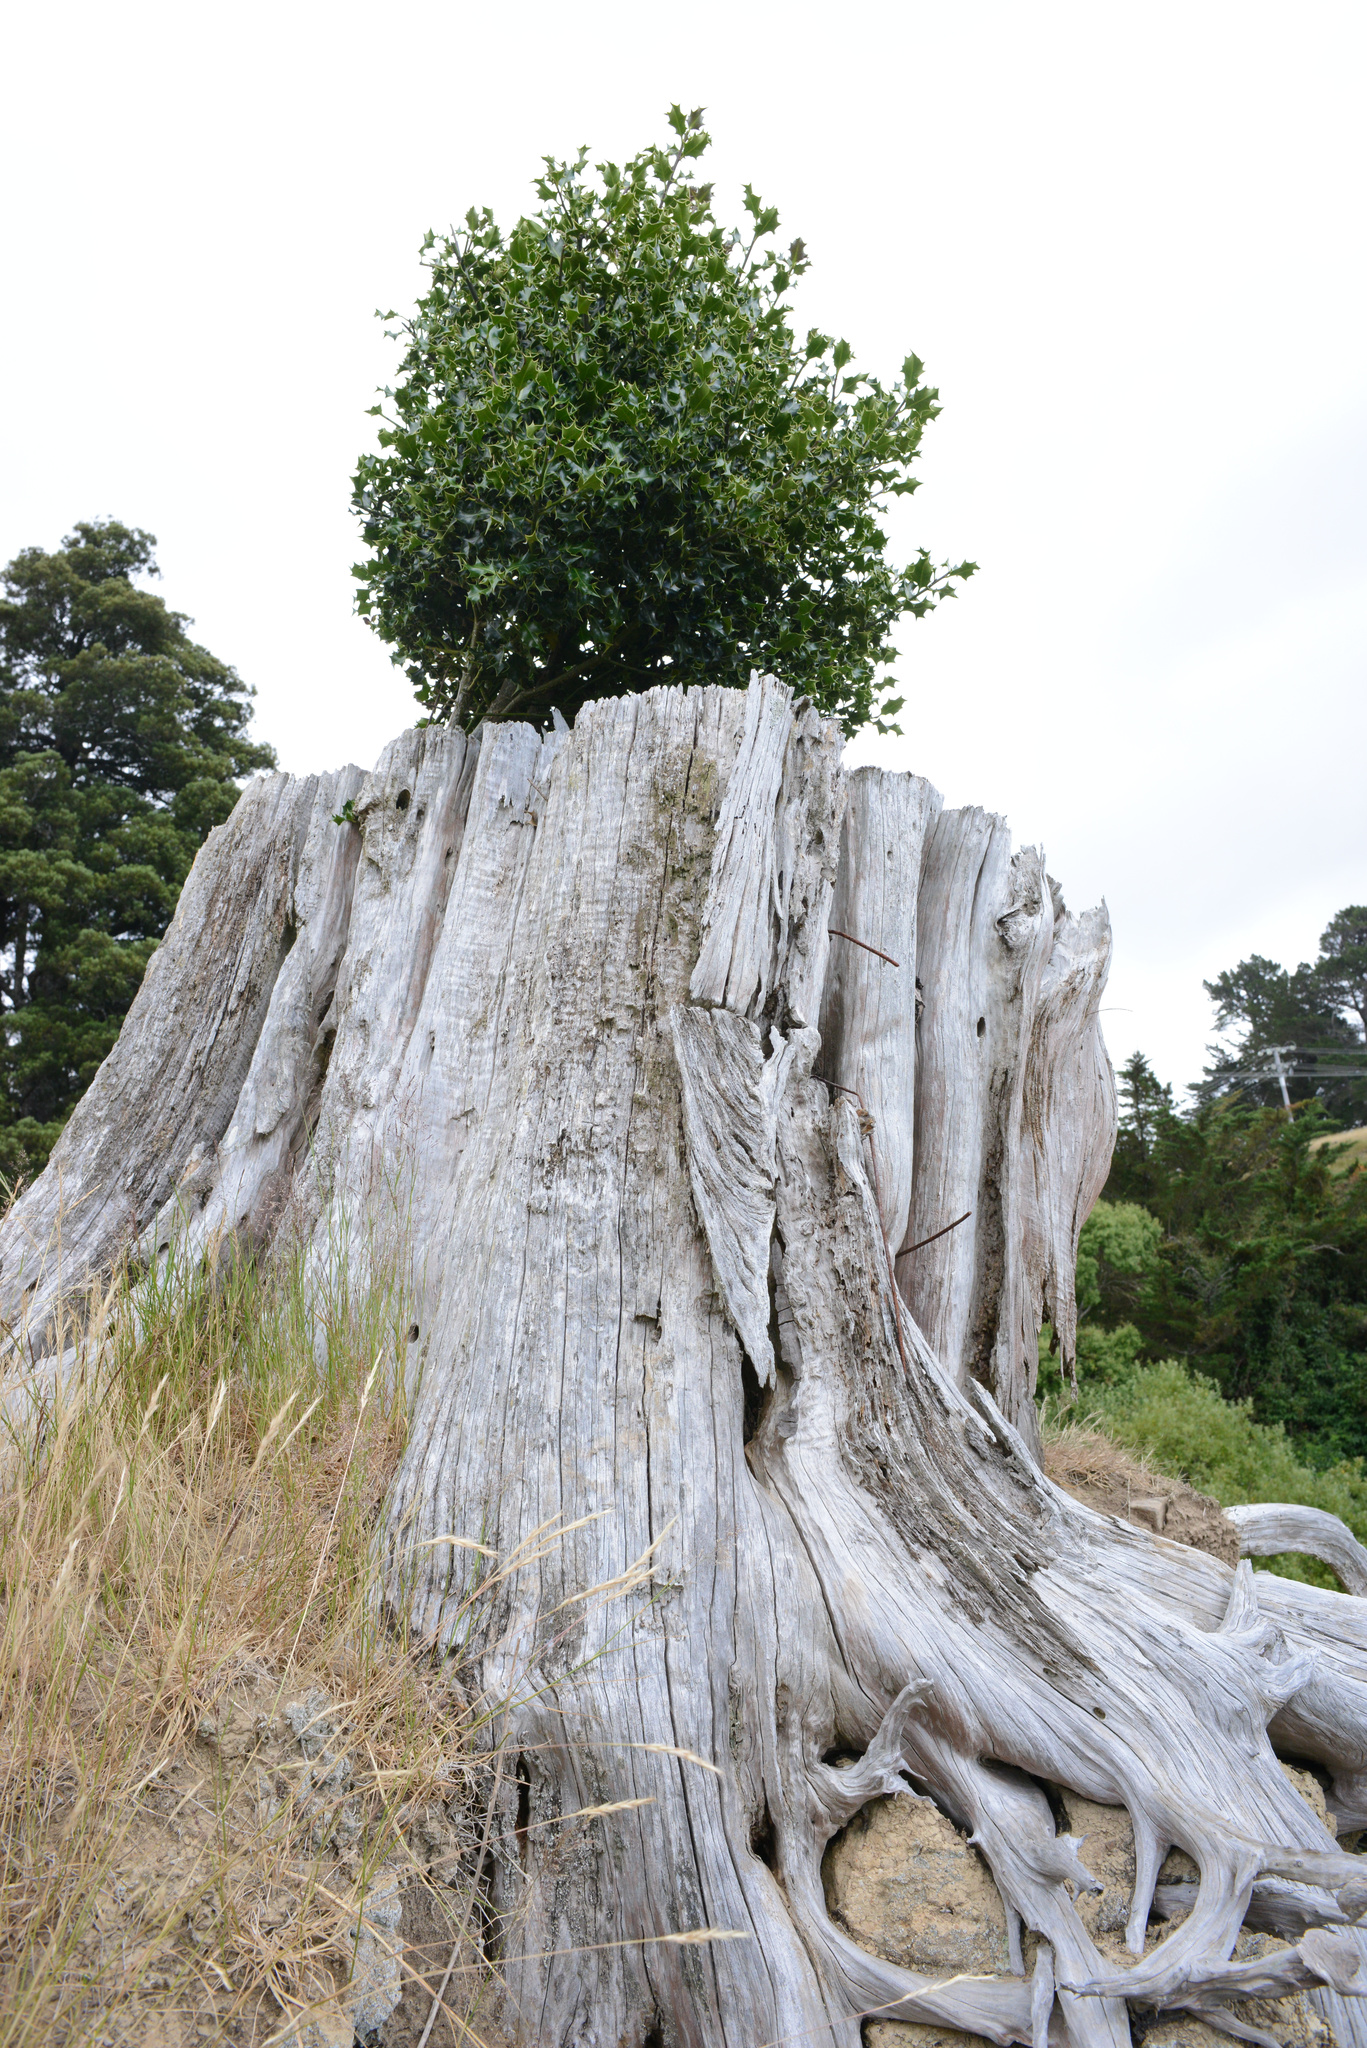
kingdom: Plantae
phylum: Tracheophyta
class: Magnoliopsida
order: Aquifoliales
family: Aquifoliaceae
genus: Ilex
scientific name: Ilex aquifolium
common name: English holly
